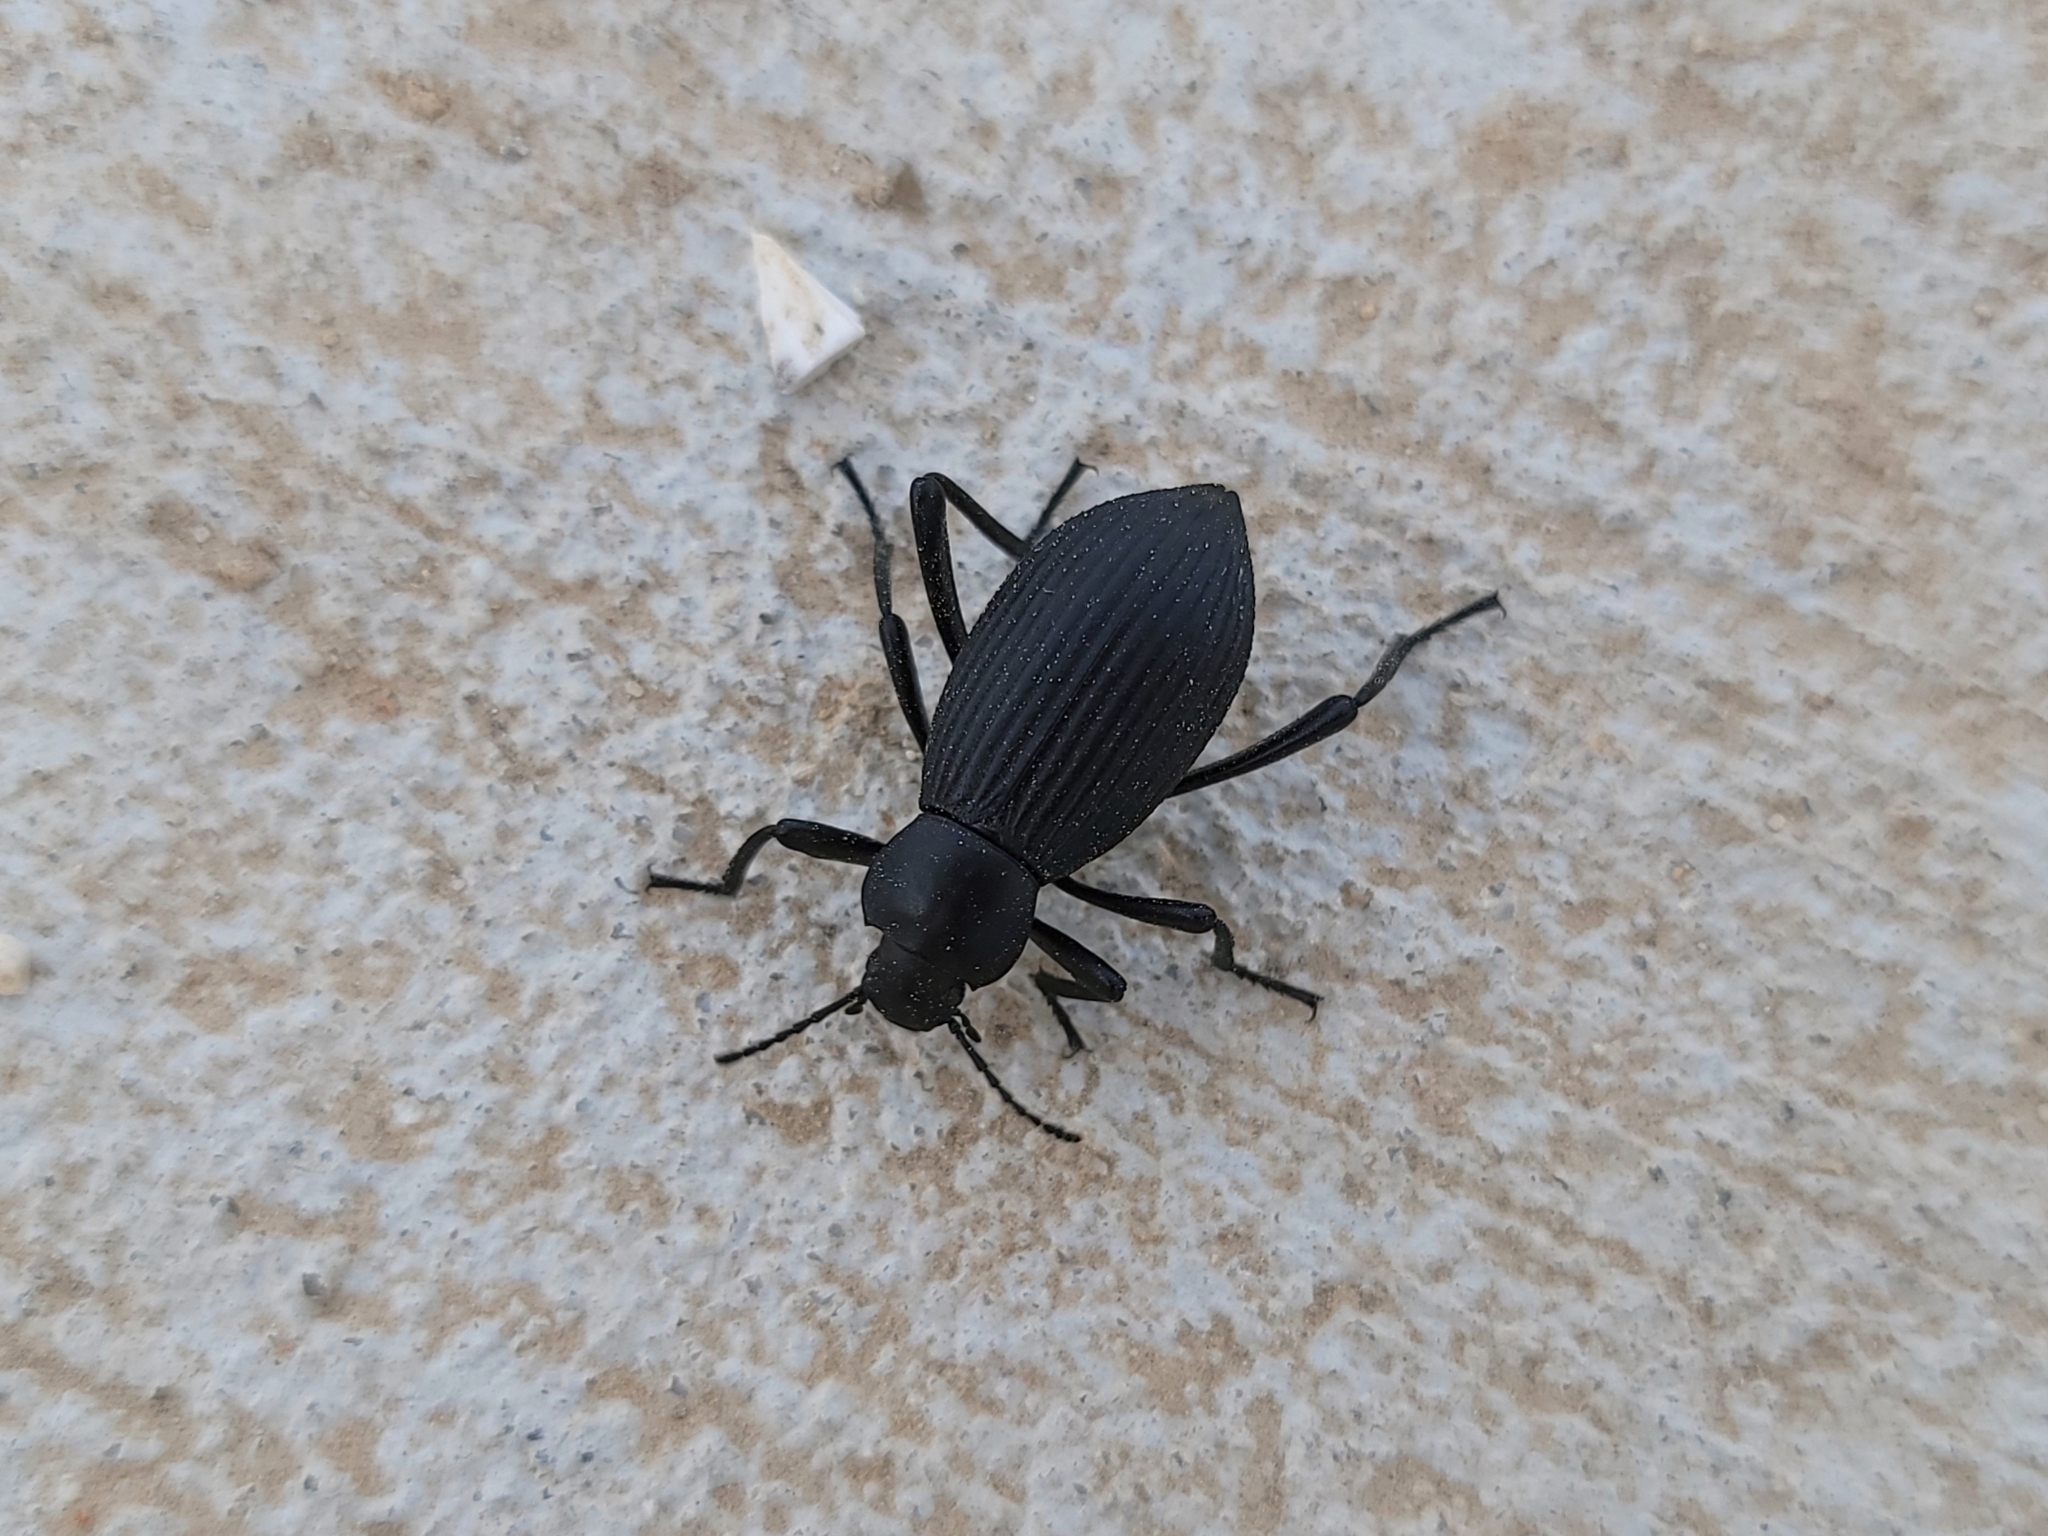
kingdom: Animalia
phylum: Arthropoda
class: Insecta
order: Coleoptera
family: Tenebrionidae
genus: Eleodes
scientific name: Eleodes hispilabris
